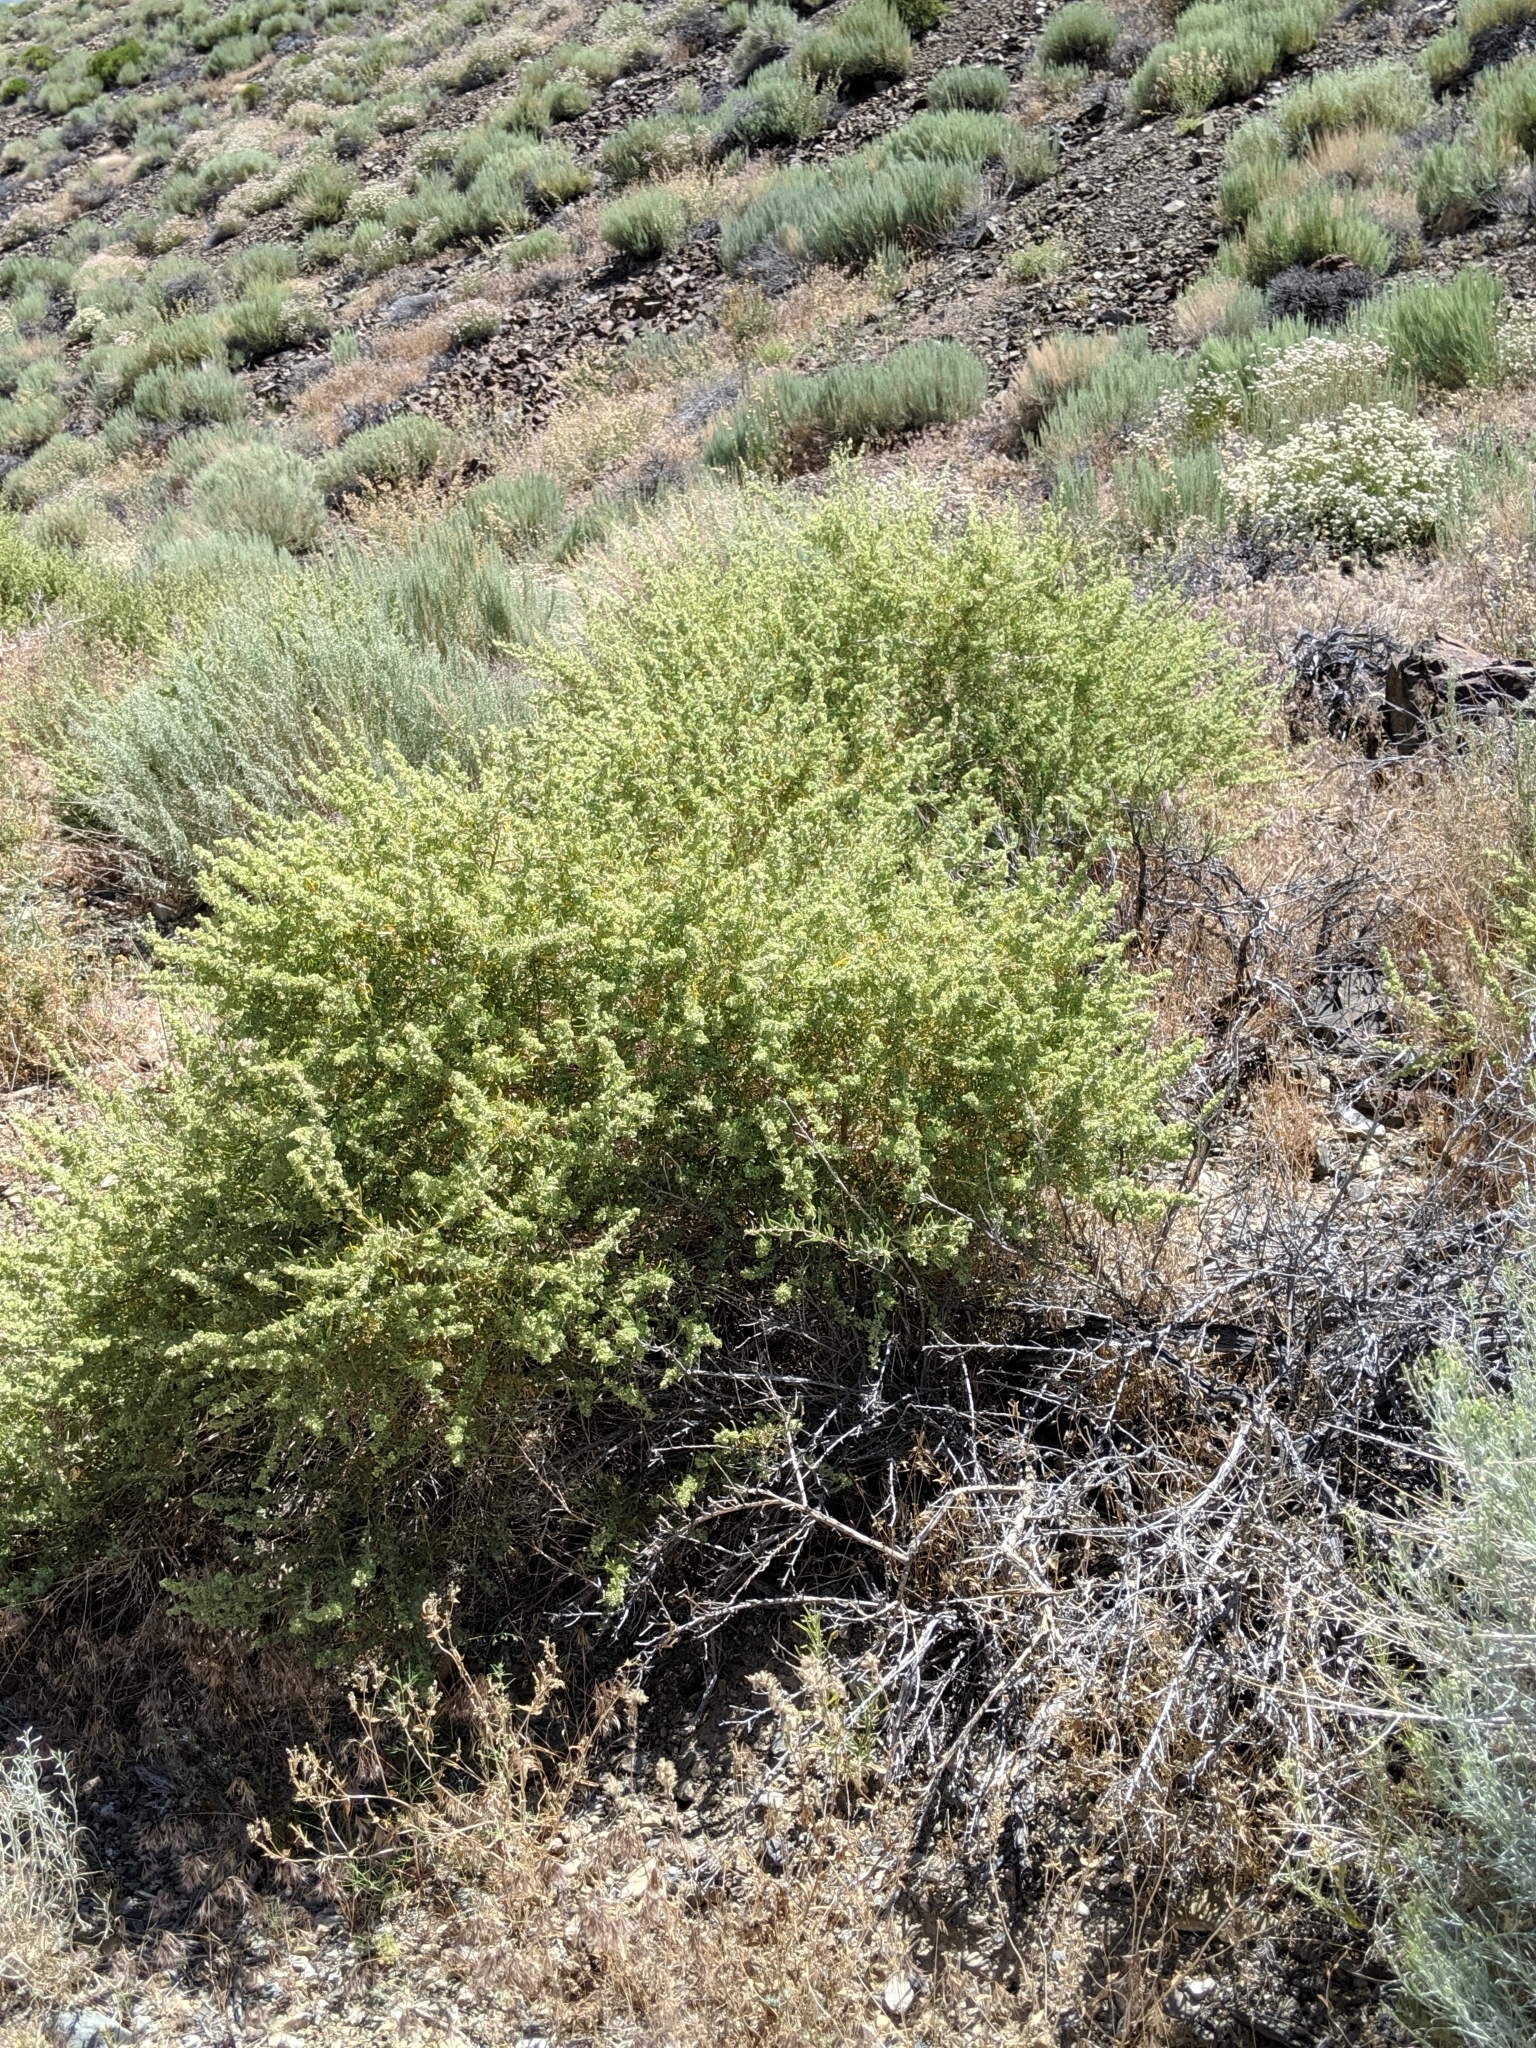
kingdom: Plantae
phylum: Tracheophyta
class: Magnoliopsida
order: Caryophyllales
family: Amaranthaceae
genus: Atriplex
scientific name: Atriplex canescens
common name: Four-wing saltbush
